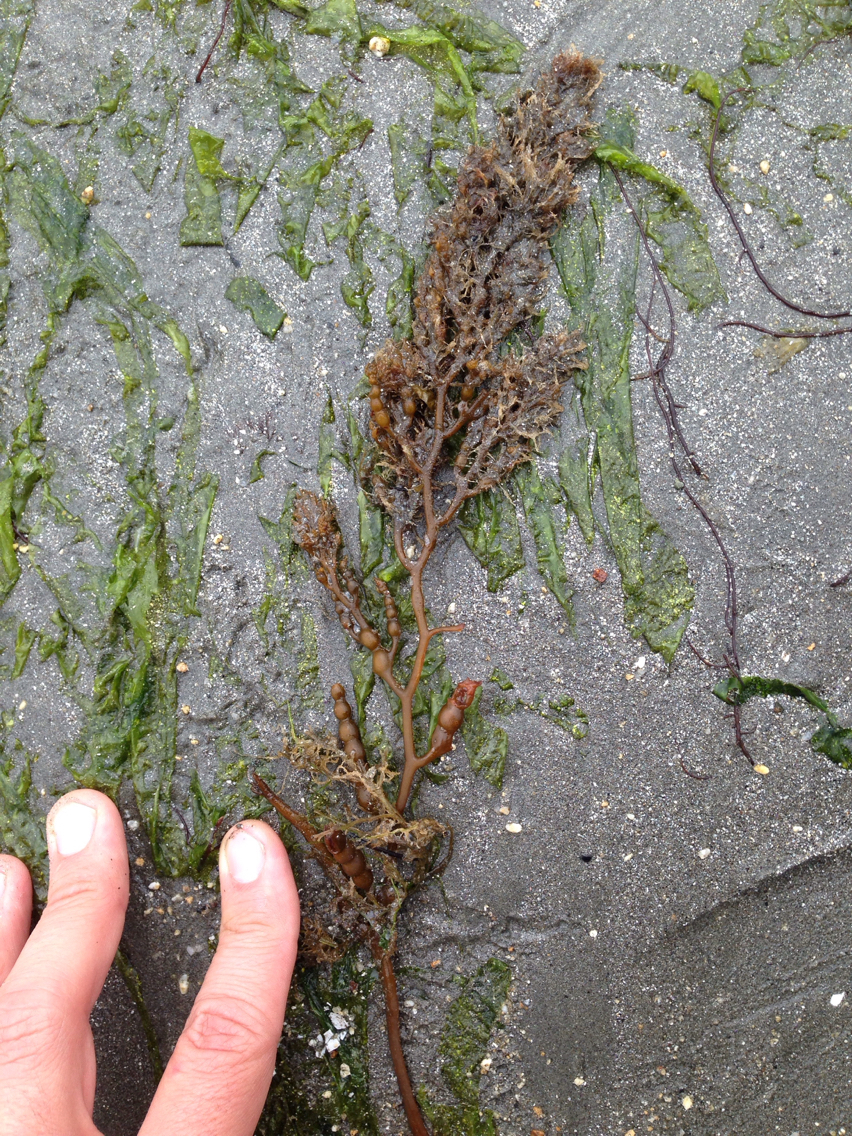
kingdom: Chromista
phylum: Ochrophyta
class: Phaeophyceae
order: Fucales
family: Sargassaceae
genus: Stephanocystis
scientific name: Stephanocystis
